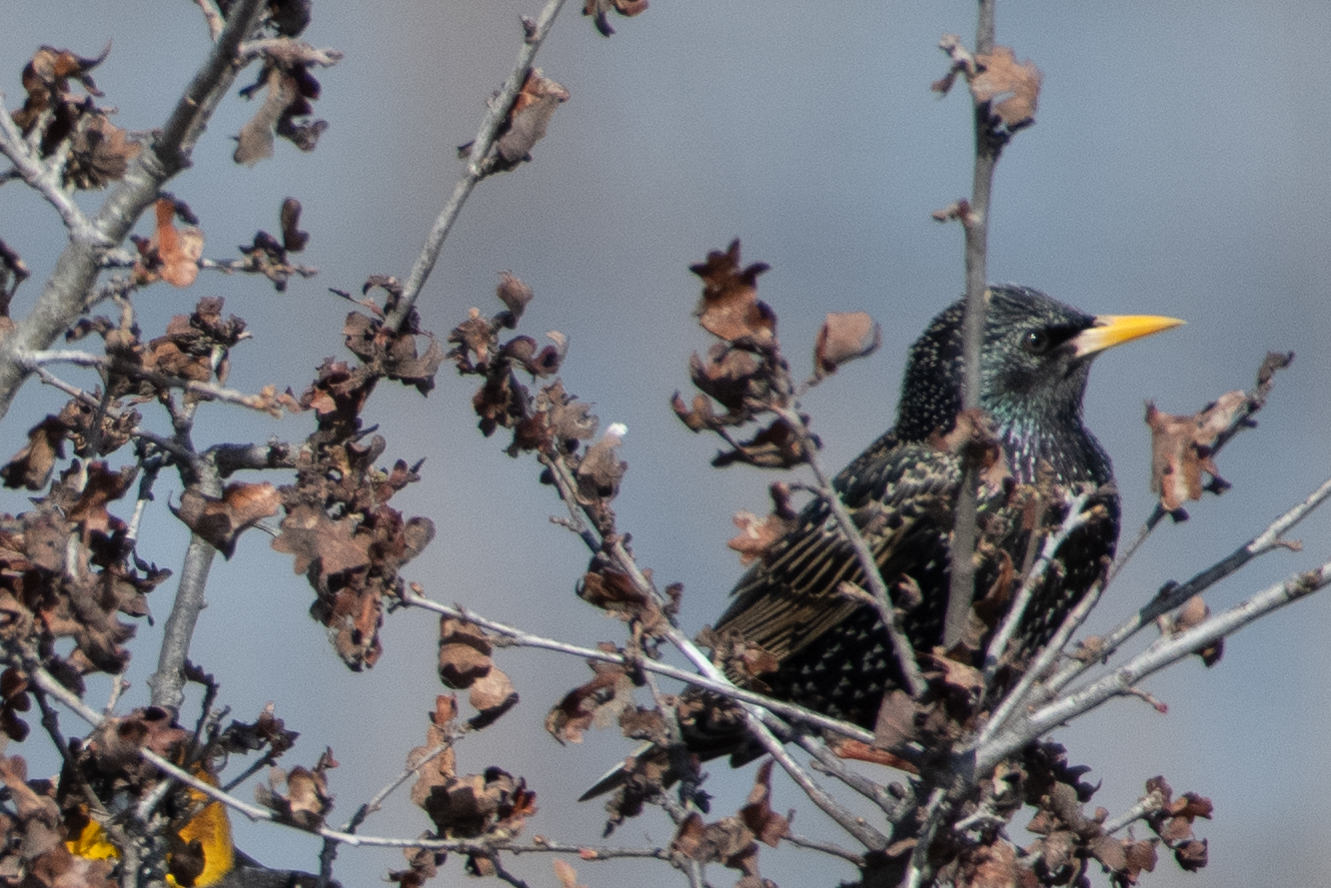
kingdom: Animalia
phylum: Chordata
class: Aves
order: Passeriformes
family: Sturnidae
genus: Sturnus
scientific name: Sturnus vulgaris
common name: Common starling
